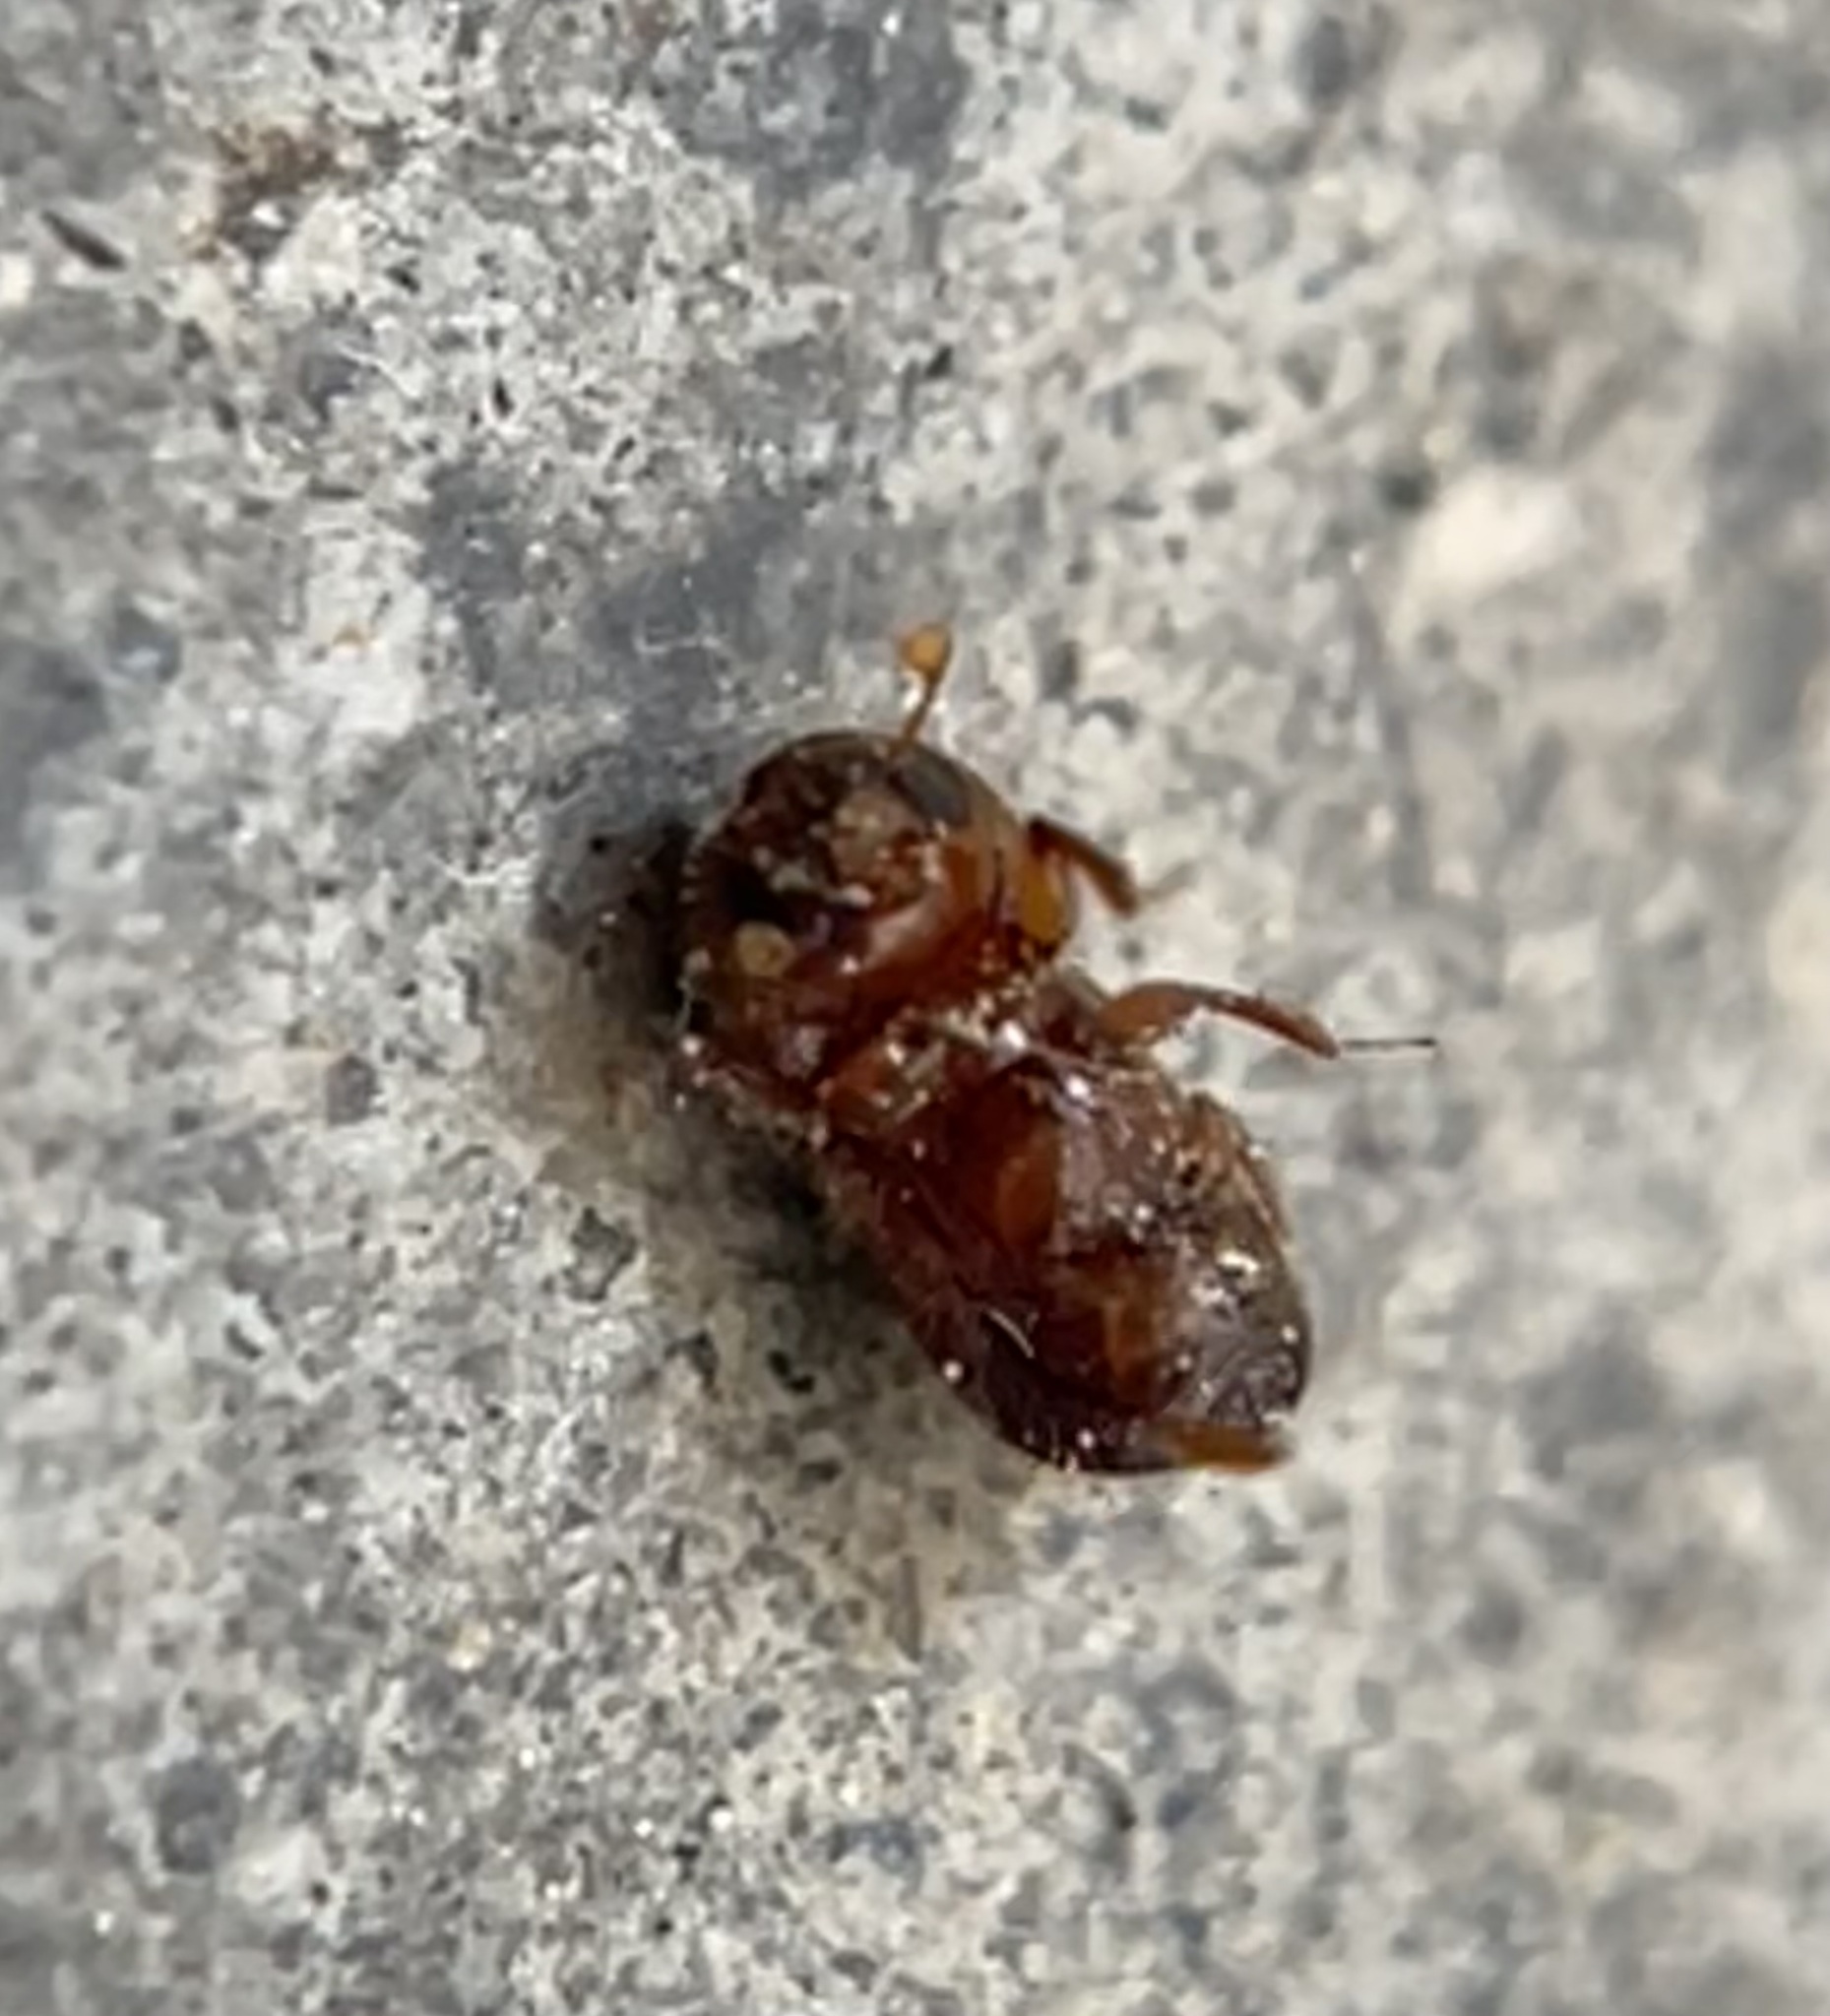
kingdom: Animalia
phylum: Arthropoda
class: Insecta
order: Coleoptera
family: Curculionidae
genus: Xylosandrus
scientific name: Xylosandrus crassiusculus
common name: Granulate ambrosia beetle
